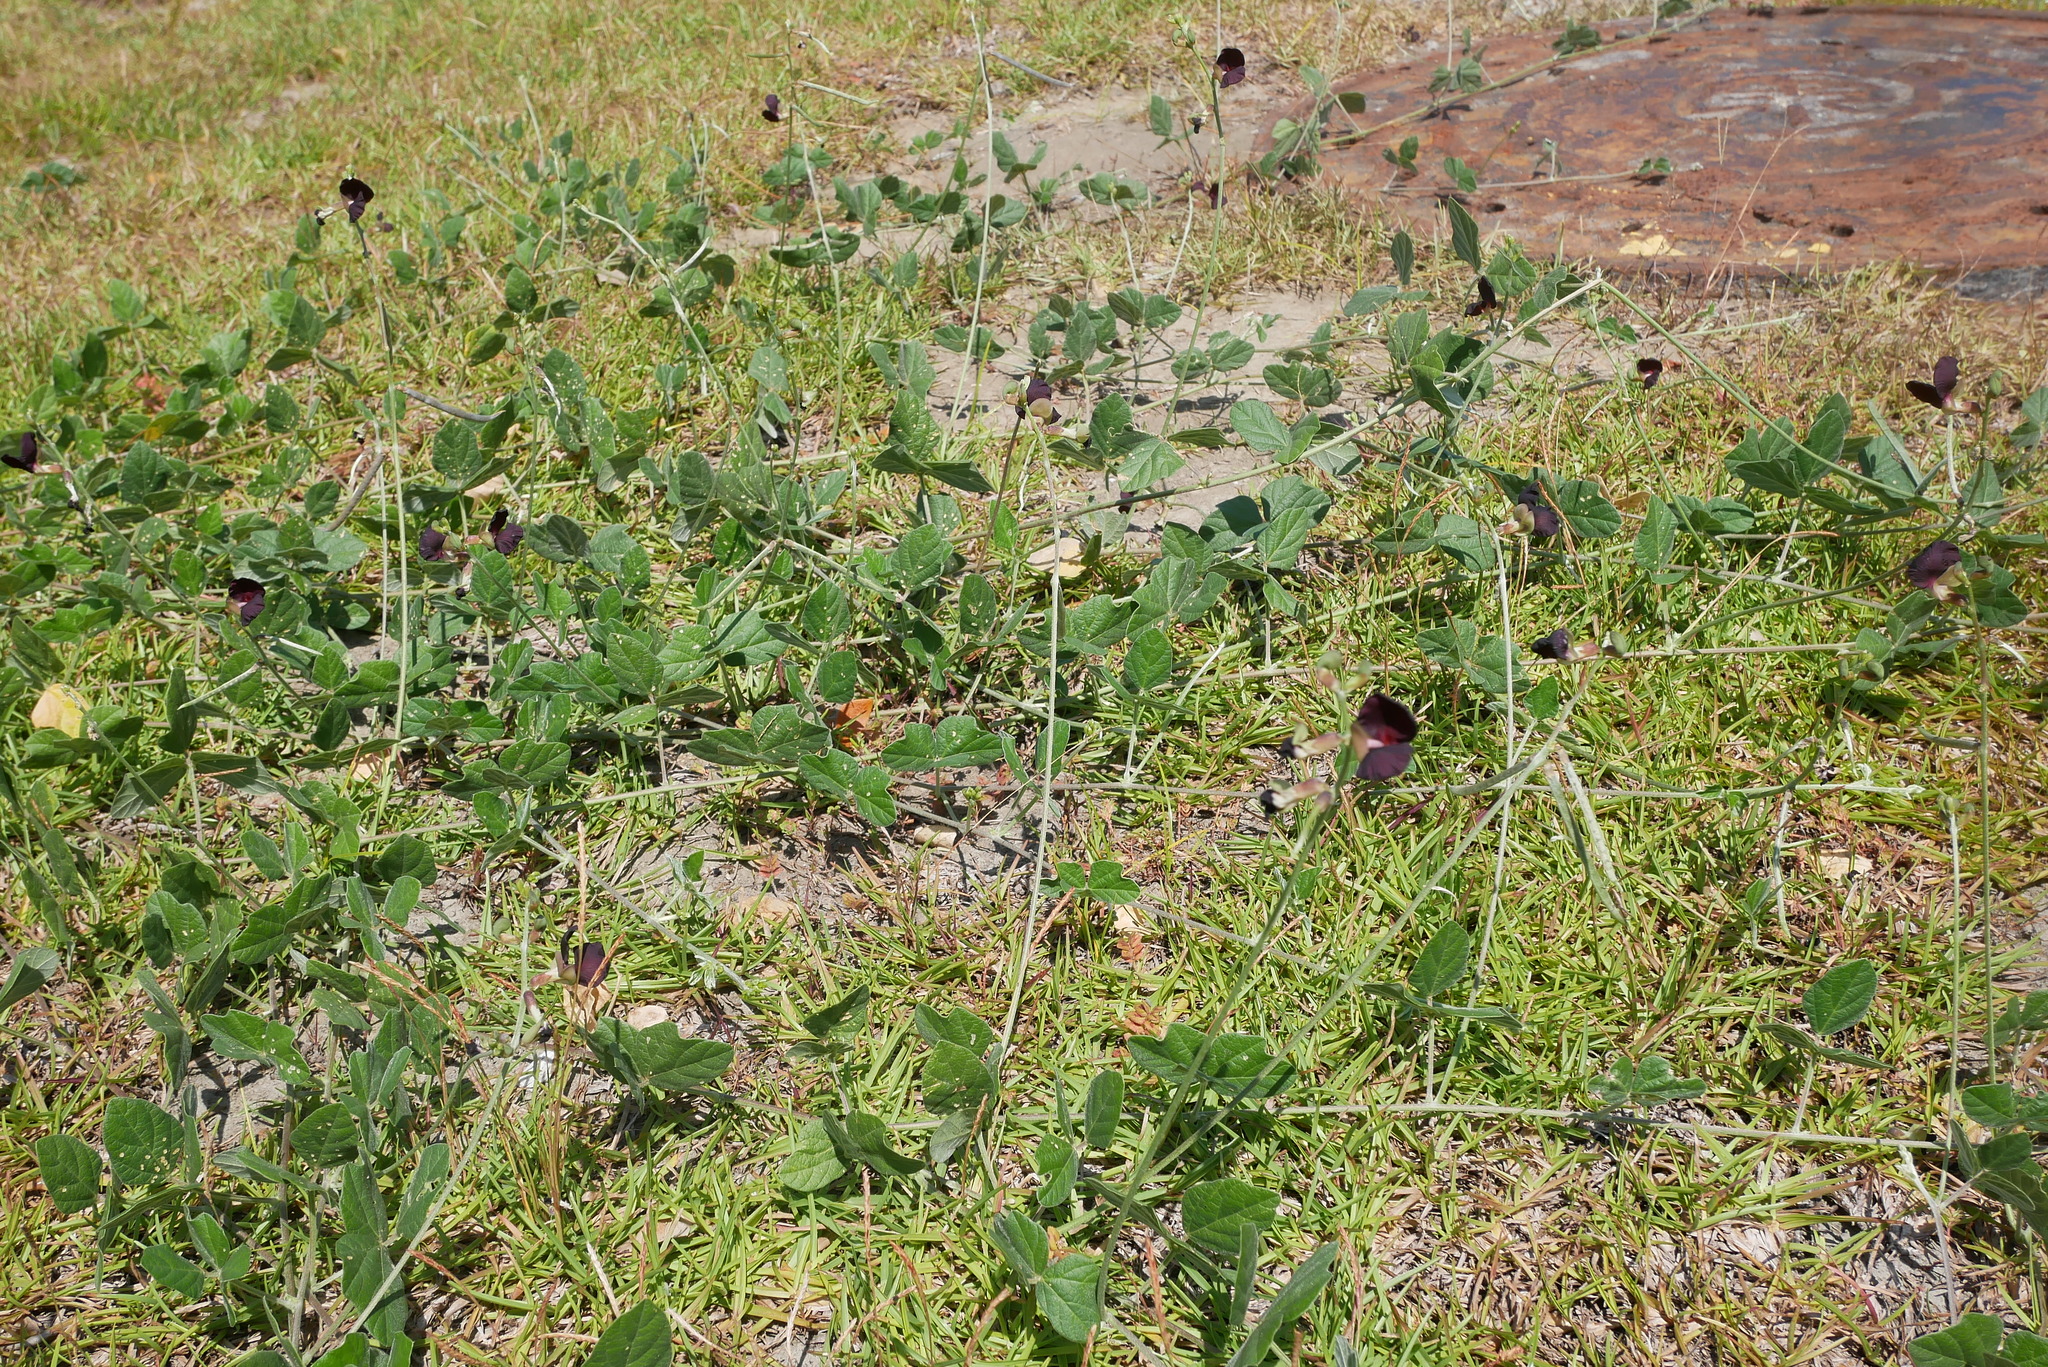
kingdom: Plantae
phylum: Tracheophyta
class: Magnoliopsida
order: Fabales
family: Fabaceae
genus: Macroptilium
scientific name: Macroptilium atropurpureum
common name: Purple bushbean
